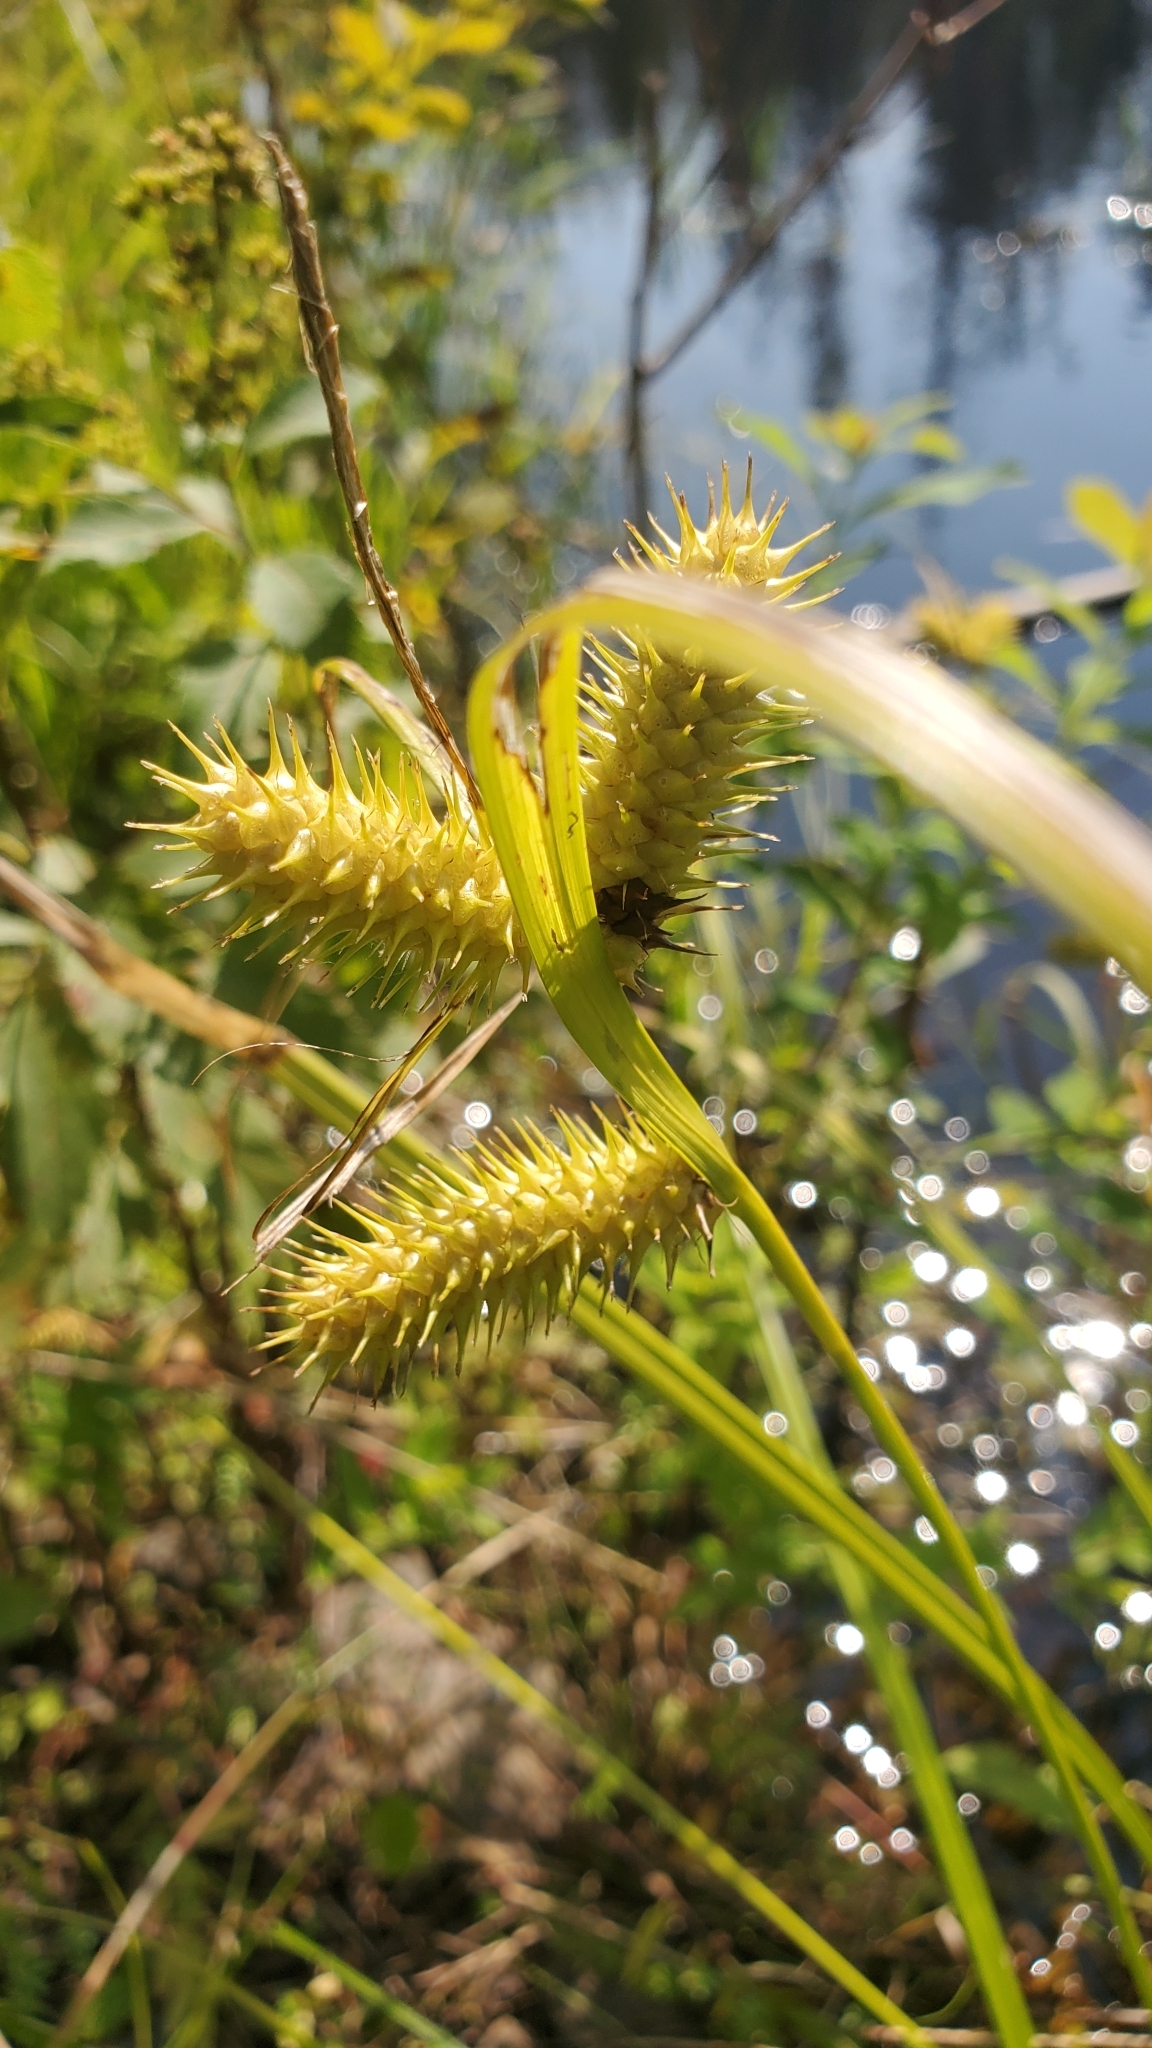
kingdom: Plantae
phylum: Tracheophyta
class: Liliopsida
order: Poales
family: Cyperaceae
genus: Carex
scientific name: Carex lurida
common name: Sallow sedge
